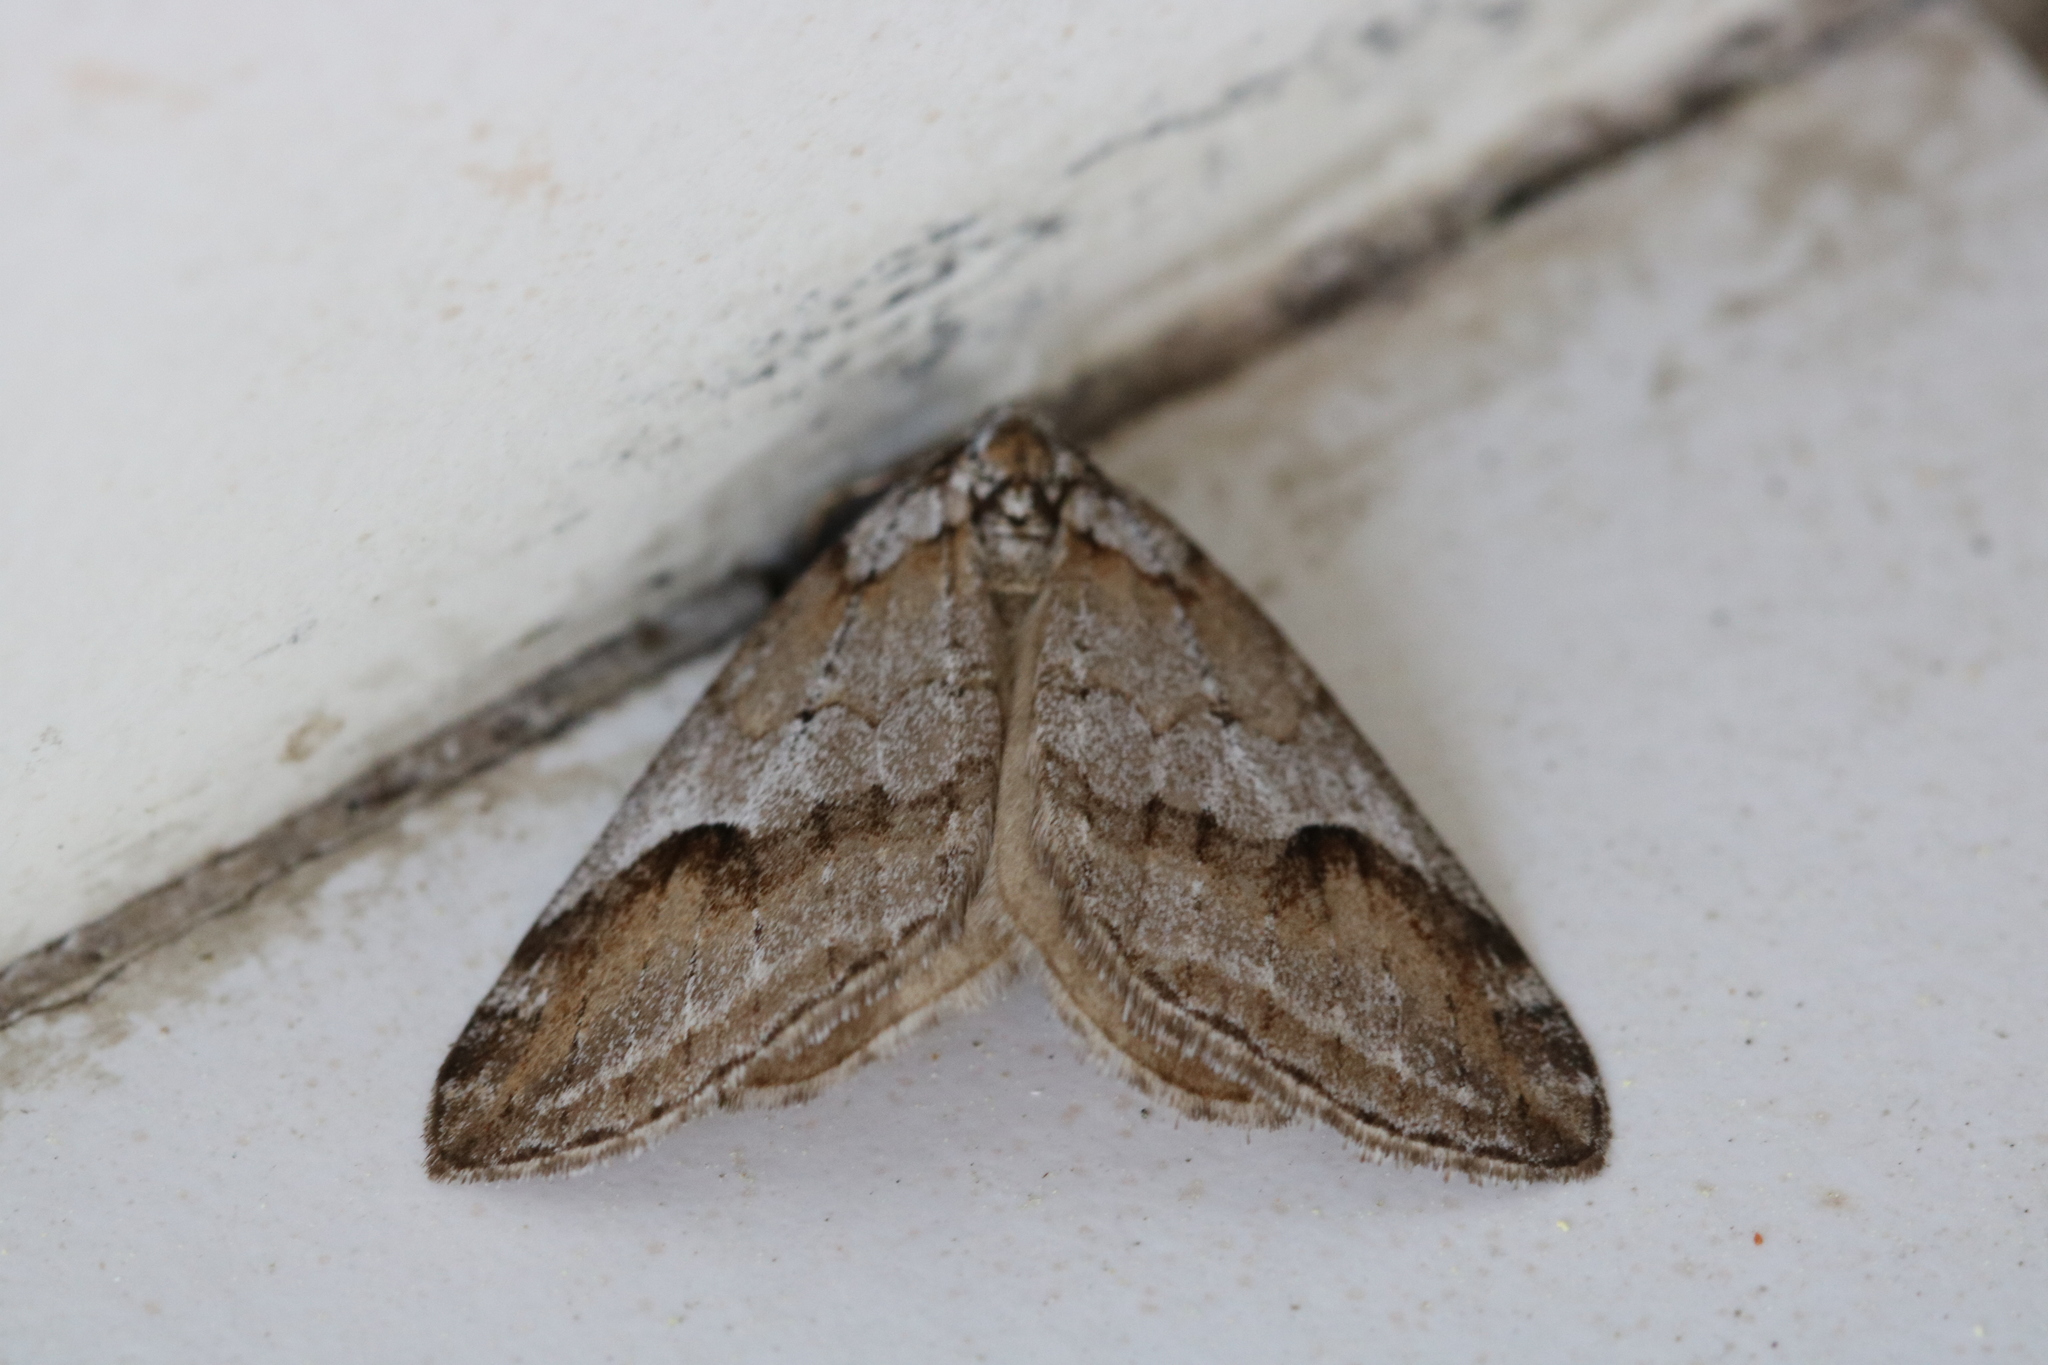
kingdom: Animalia
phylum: Arthropoda
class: Insecta
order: Lepidoptera
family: Geometridae
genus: Chesias
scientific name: Chesias rufata
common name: Broom-tip
